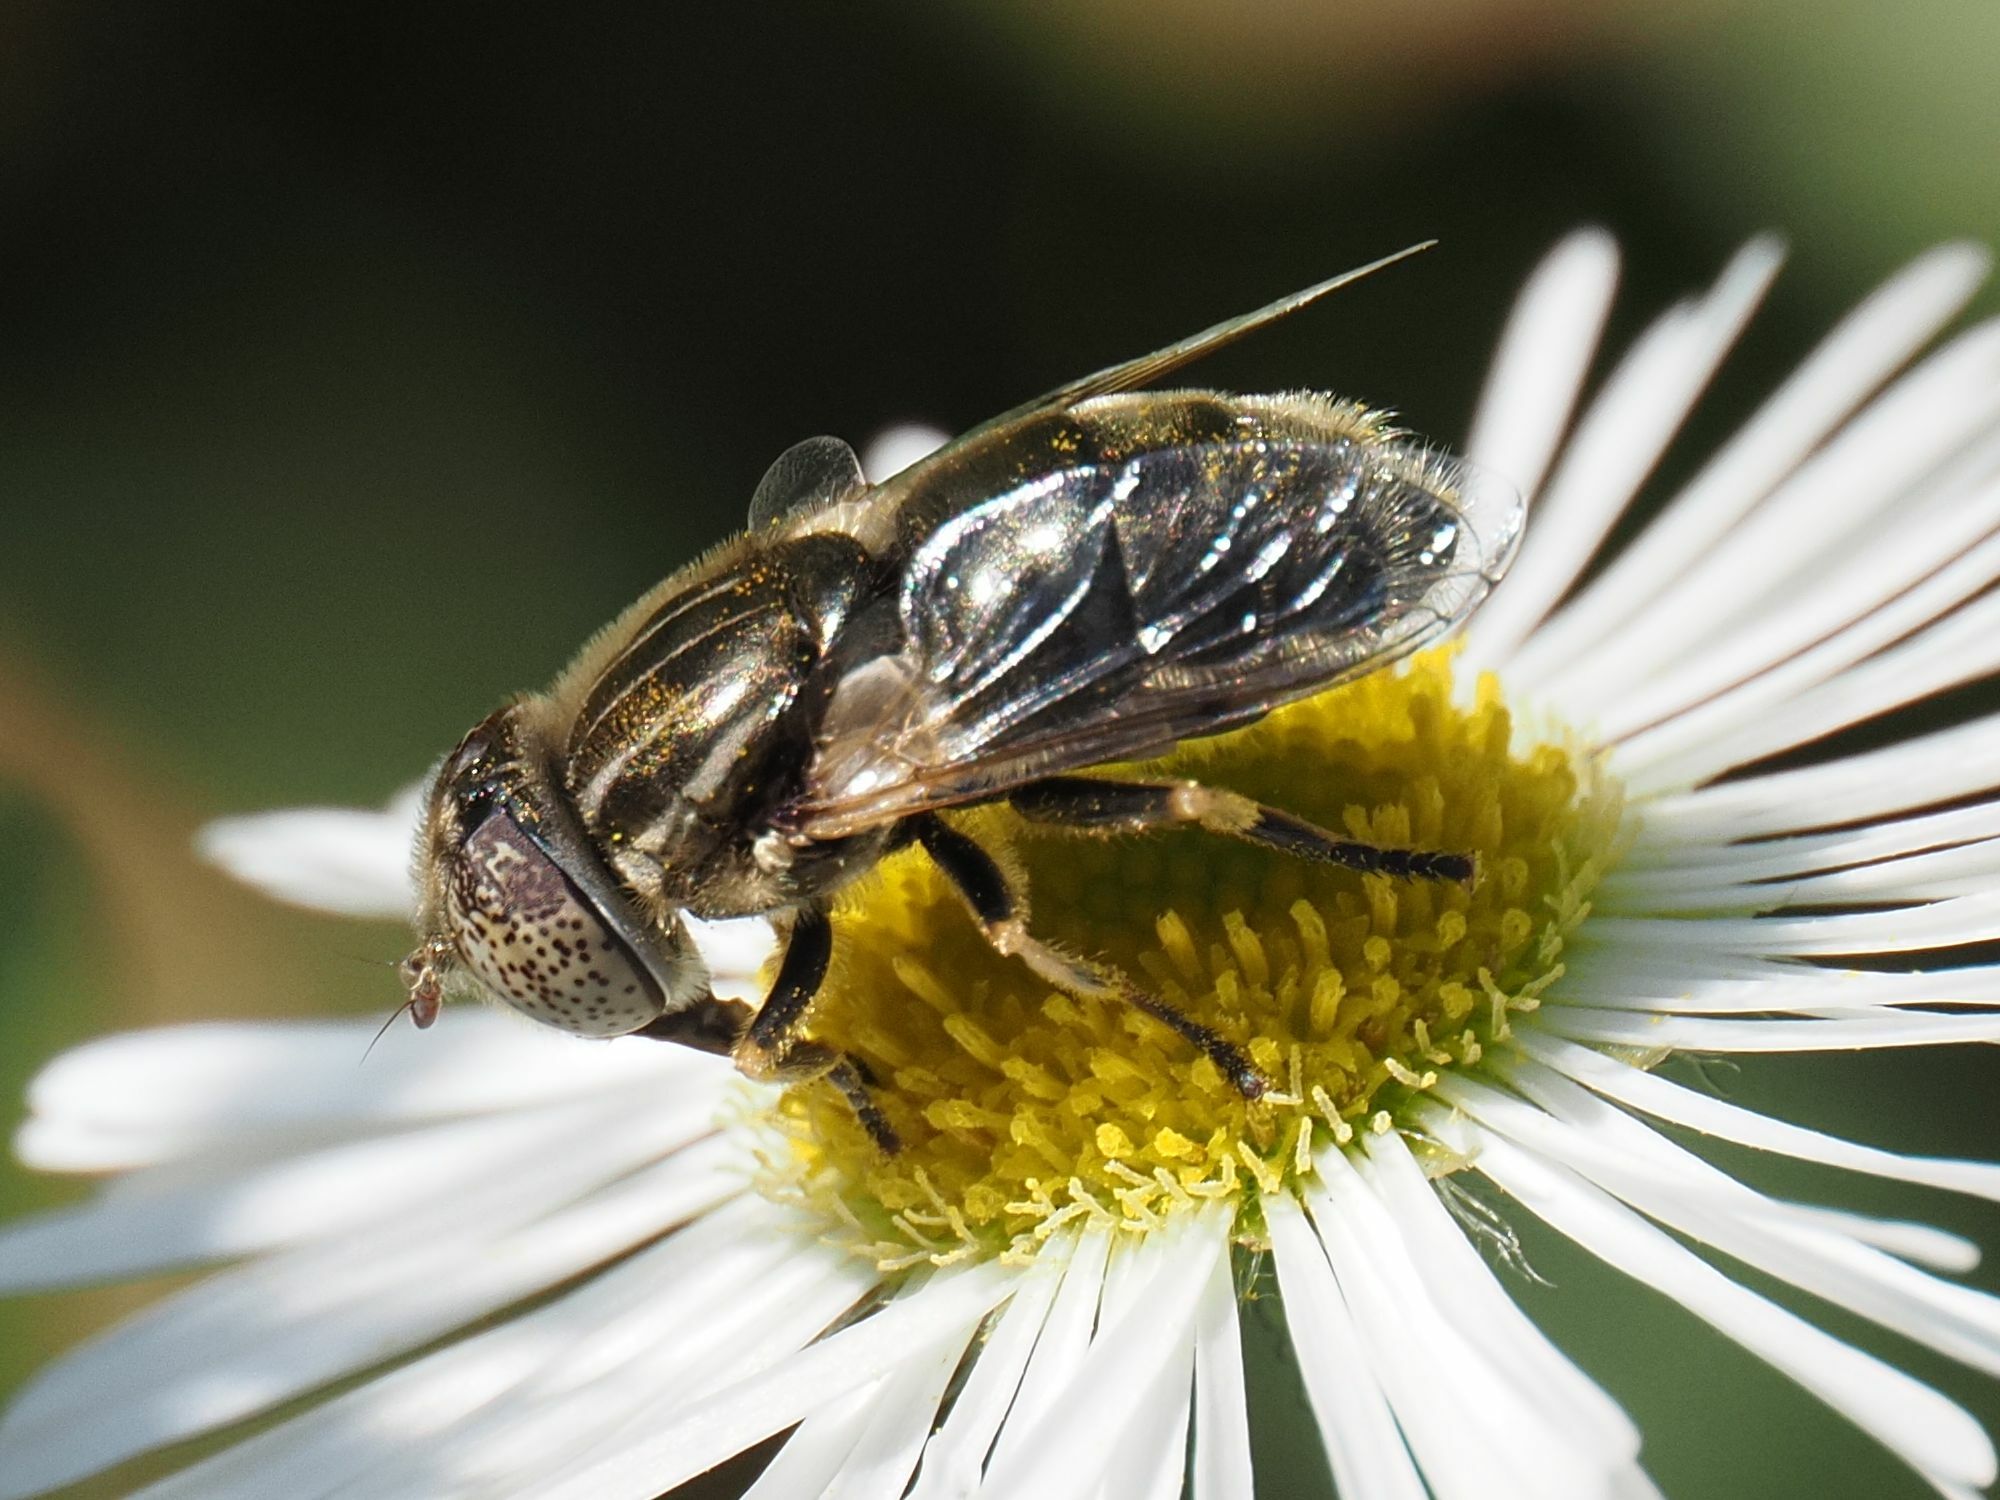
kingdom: Animalia
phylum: Arthropoda
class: Insecta
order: Diptera
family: Syrphidae
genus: Eristalinus
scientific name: Eristalinus aeneus
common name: Syrphid fly
